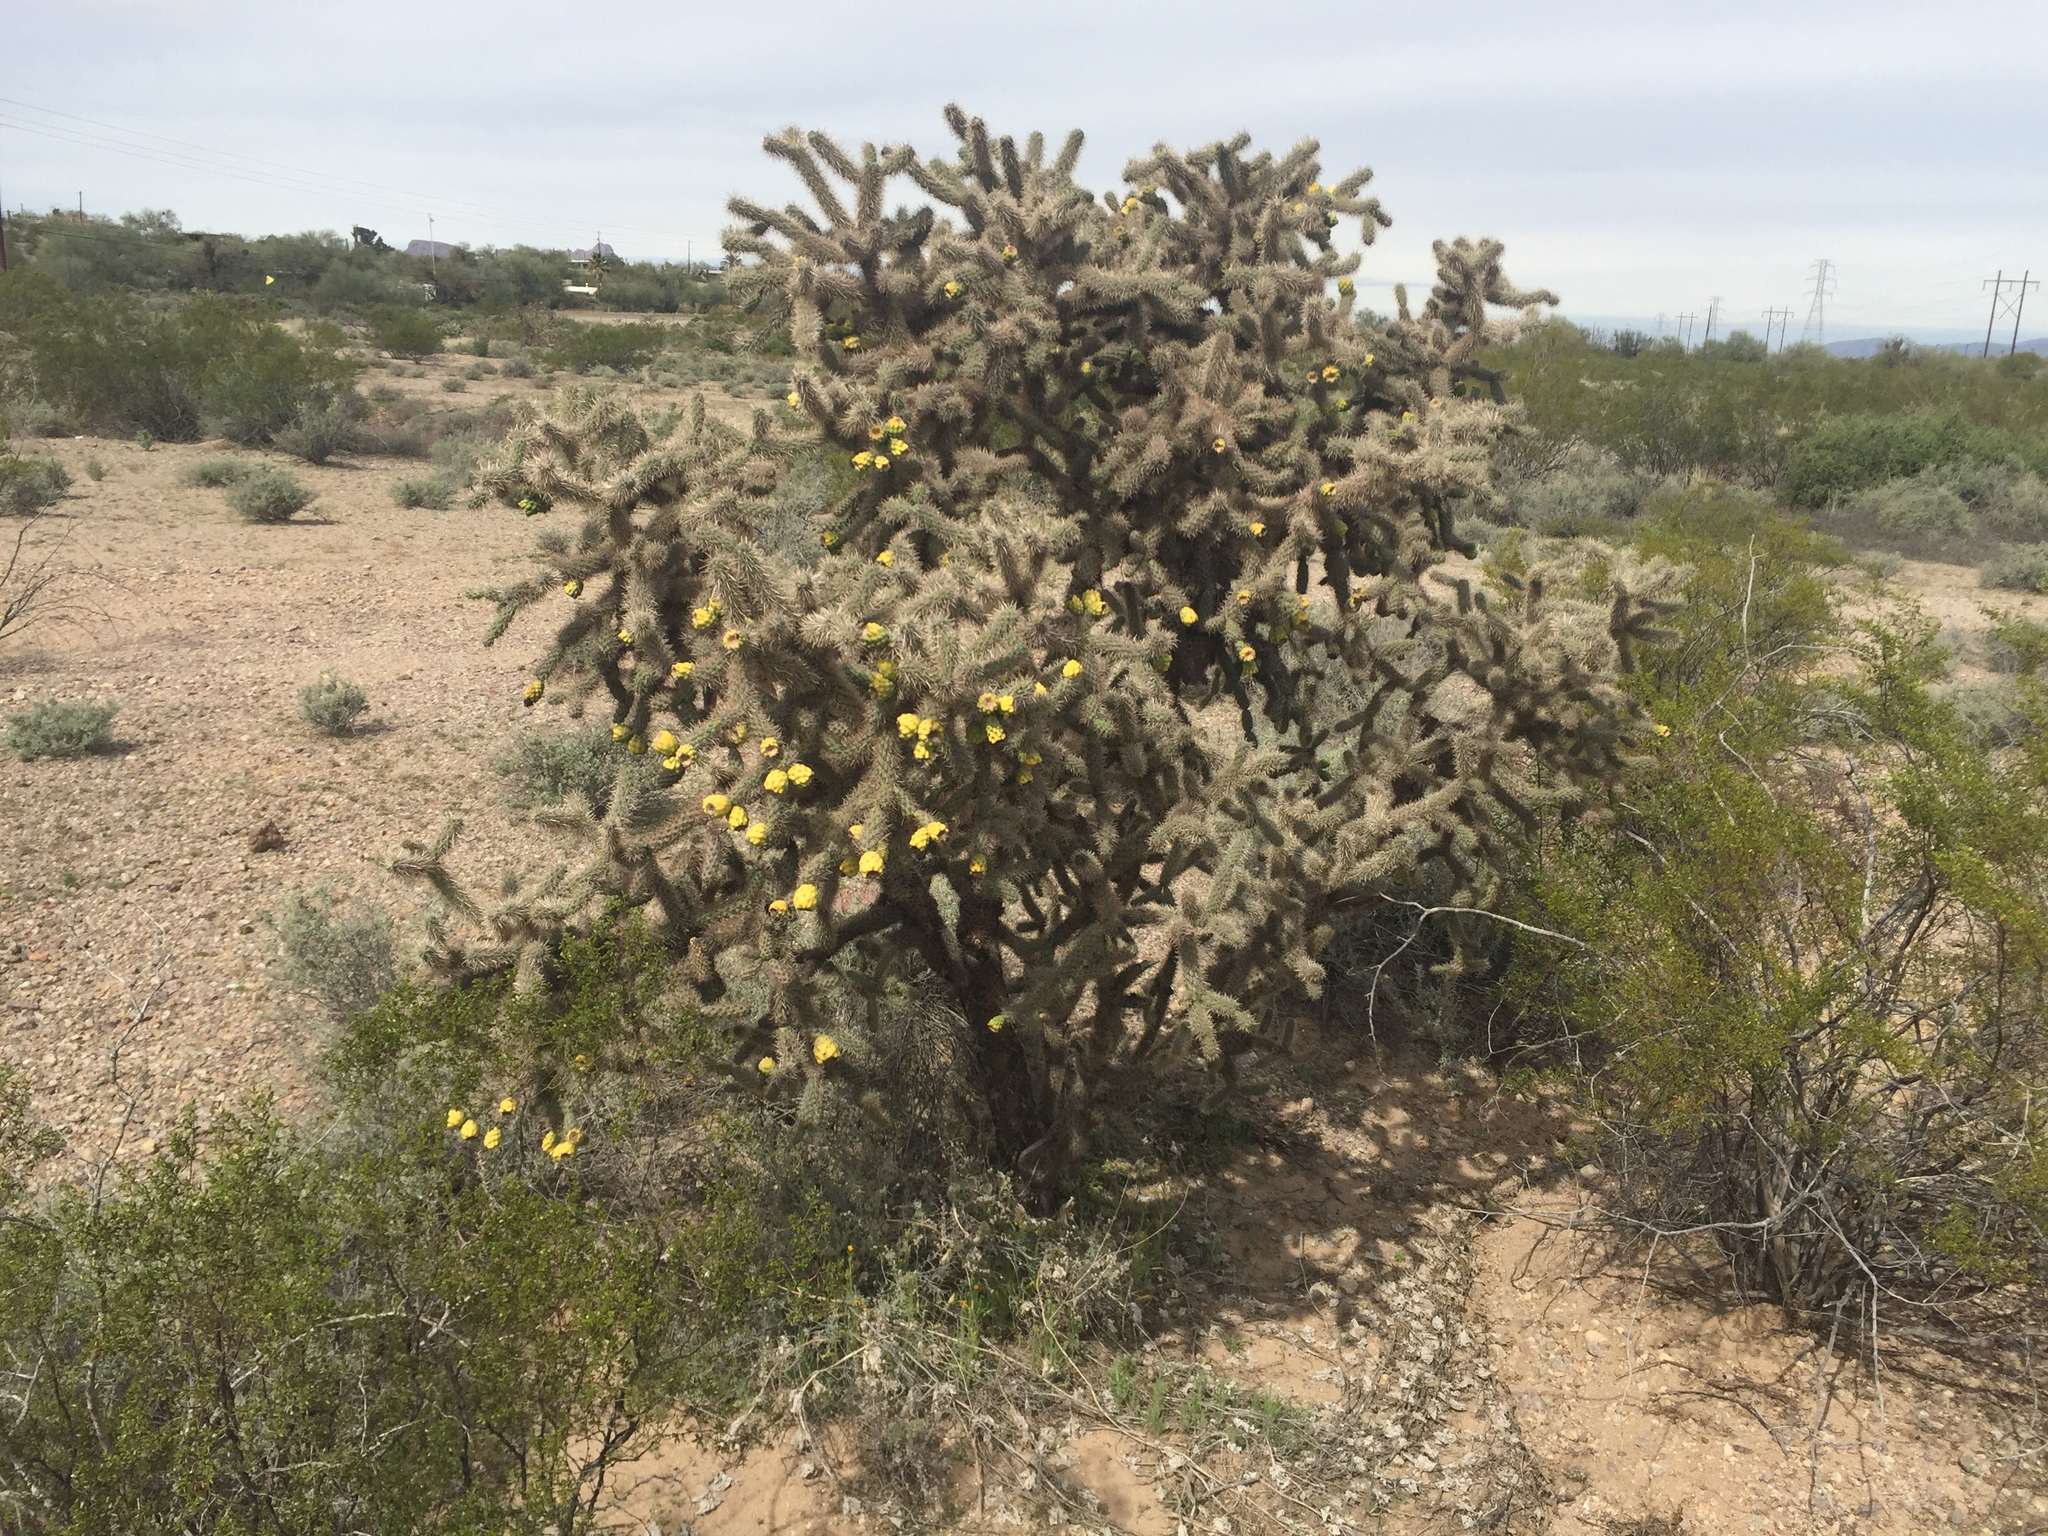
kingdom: Plantae
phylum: Tracheophyta
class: Magnoliopsida
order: Caryophyllales
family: Cactaceae
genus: Cylindropuntia
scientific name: Cylindropuntia imbricata
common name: Candelabrum cactus
